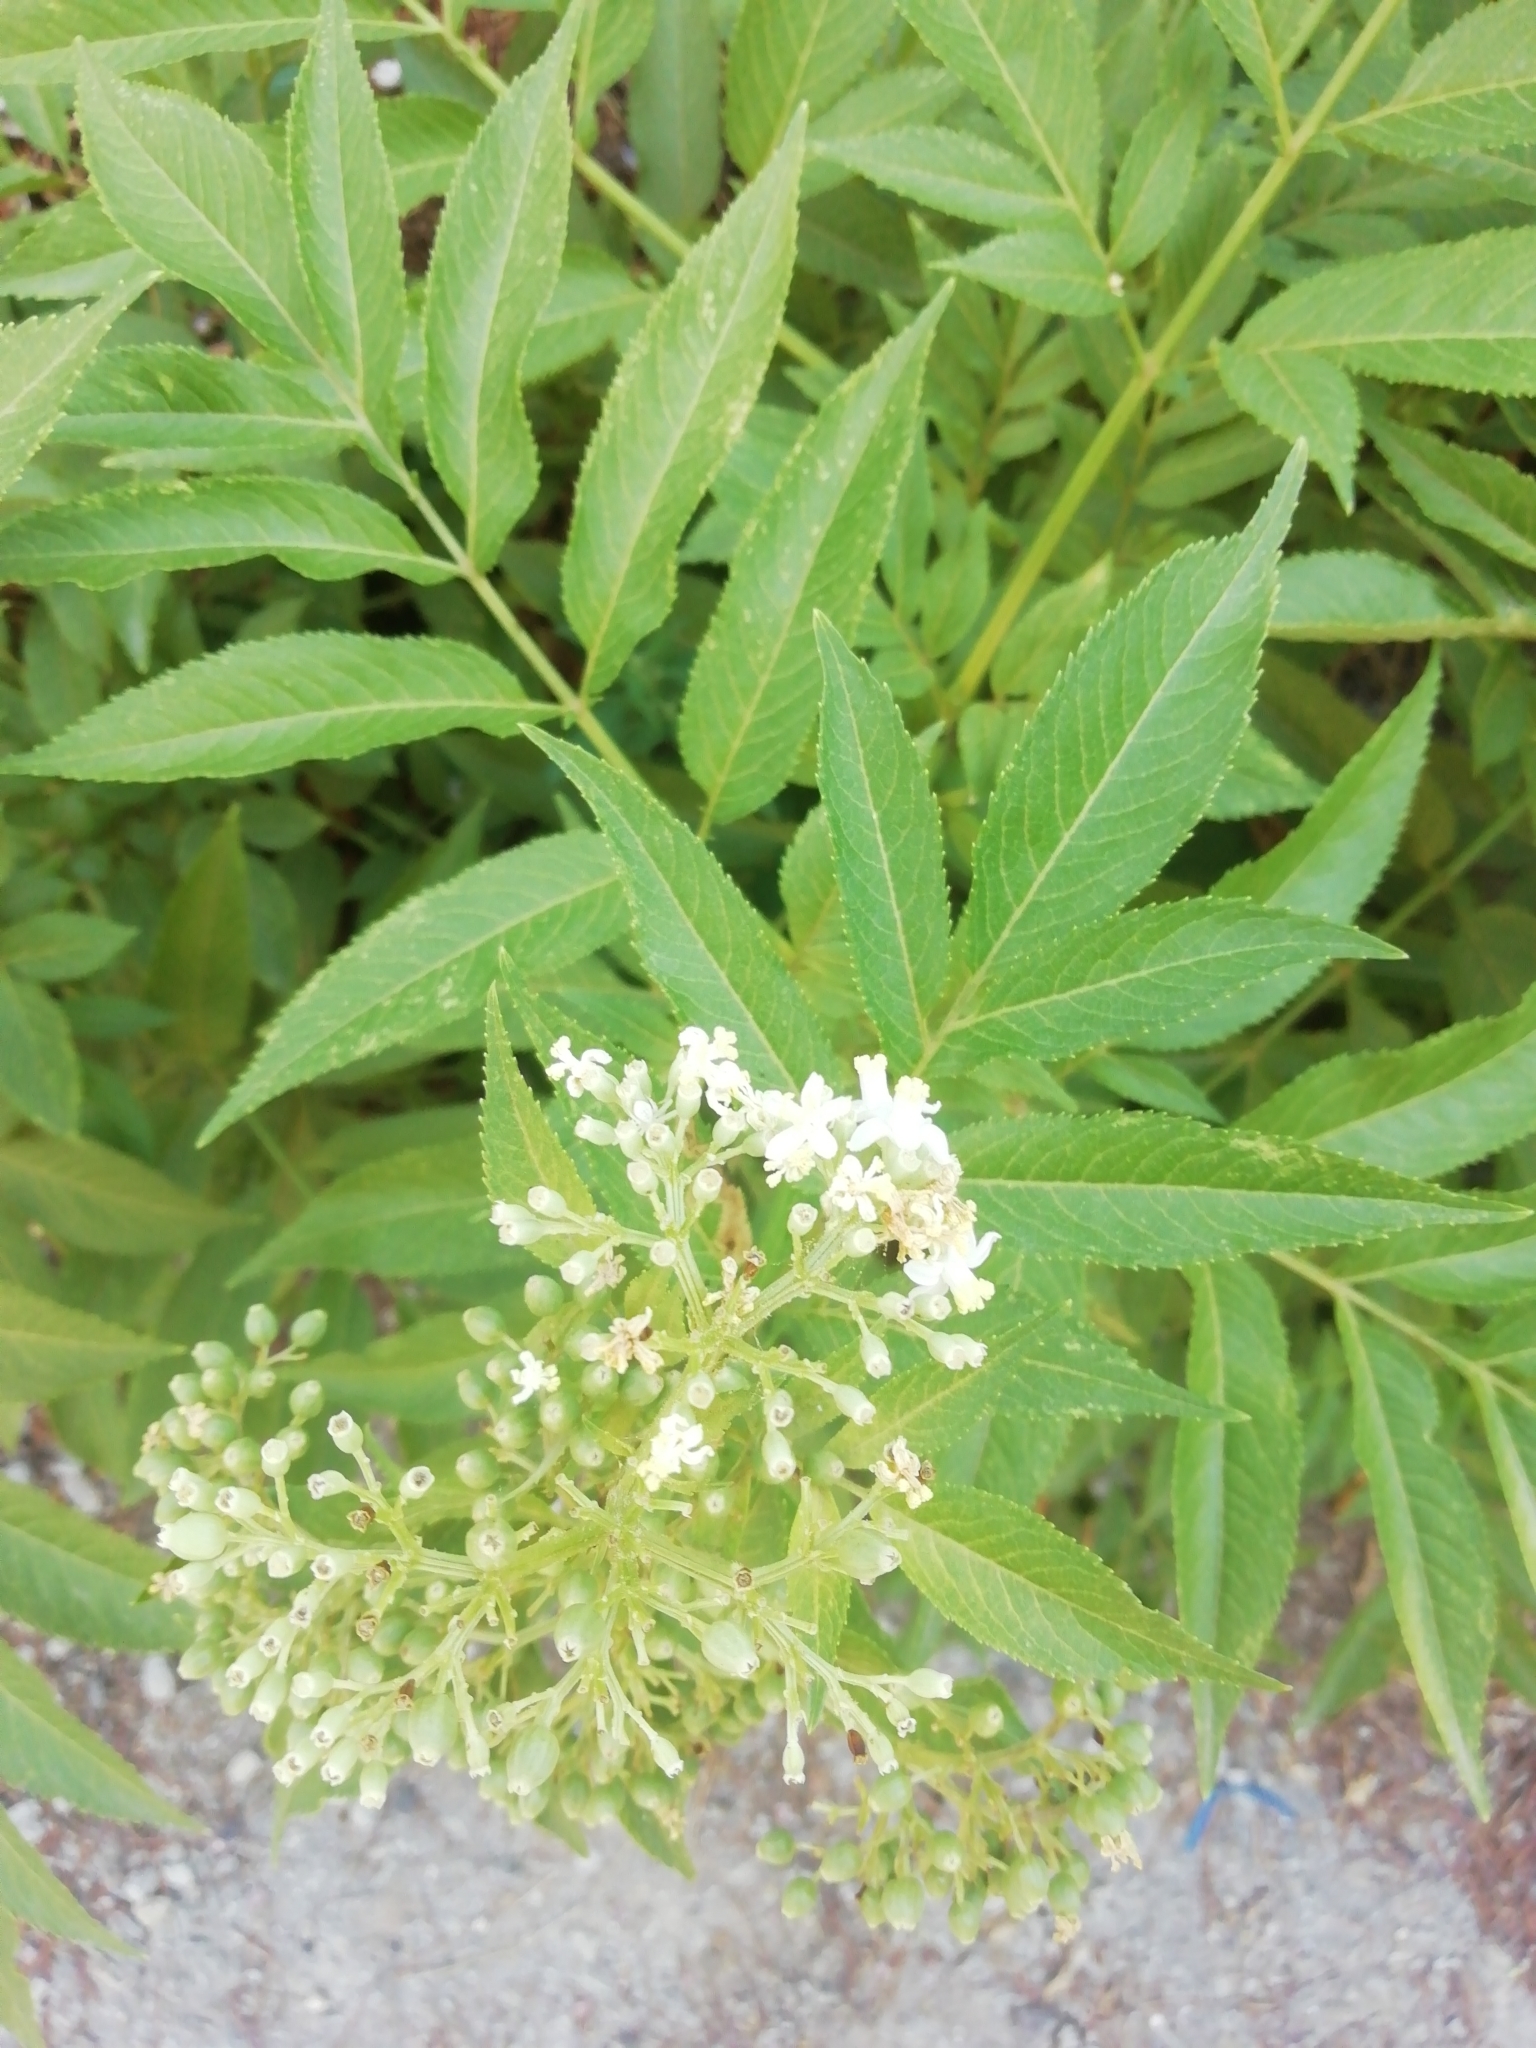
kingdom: Plantae
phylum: Tracheophyta
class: Magnoliopsida
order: Dipsacales
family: Viburnaceae
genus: Sambucus
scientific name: Sambucus ebulus
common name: Dwarf elder
